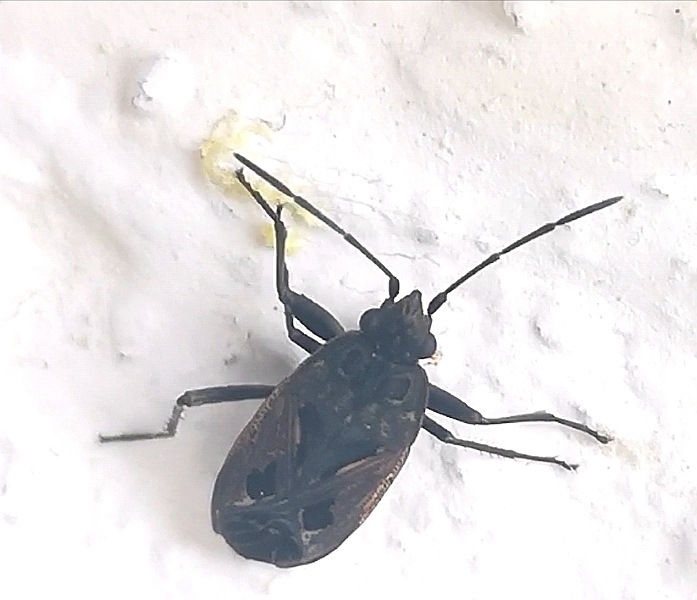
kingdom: Animalia
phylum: Arthropoda
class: Insecta
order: Hemiptera
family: Rhyparochromidae
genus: Rhyparochromus
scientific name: Rhyparochromus pini
